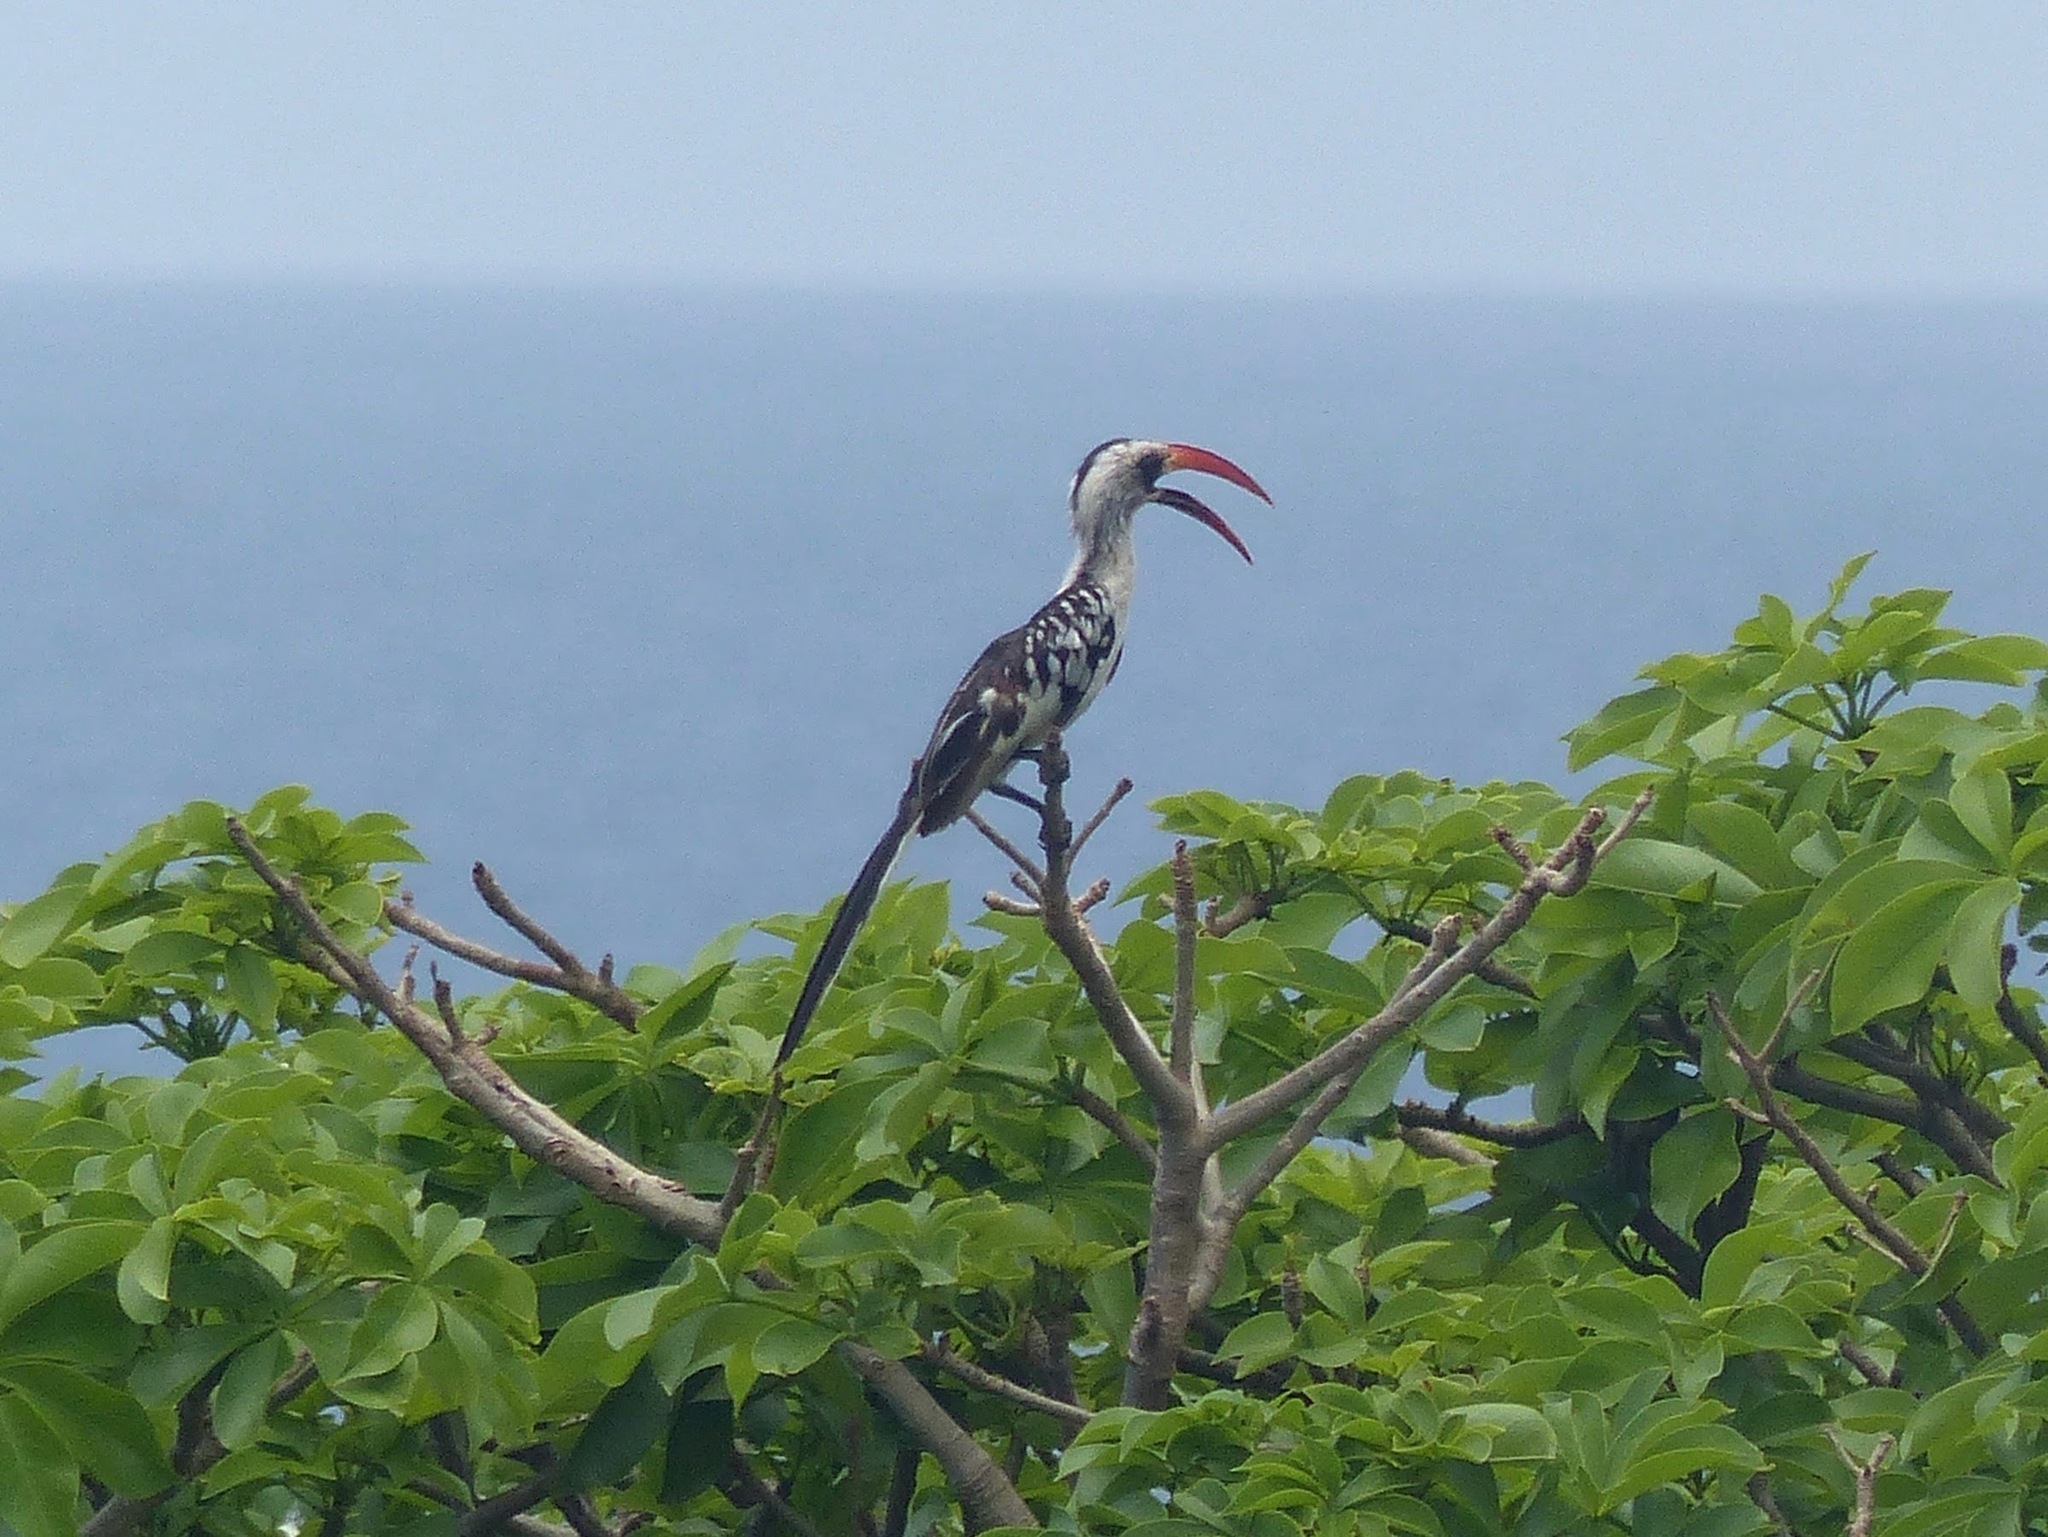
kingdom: Animalia
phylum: Chordata
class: Aves
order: Bucerotiformes
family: Bucerotidae
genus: Tockus
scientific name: Tockus kempi
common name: Western red-billed hornbill
